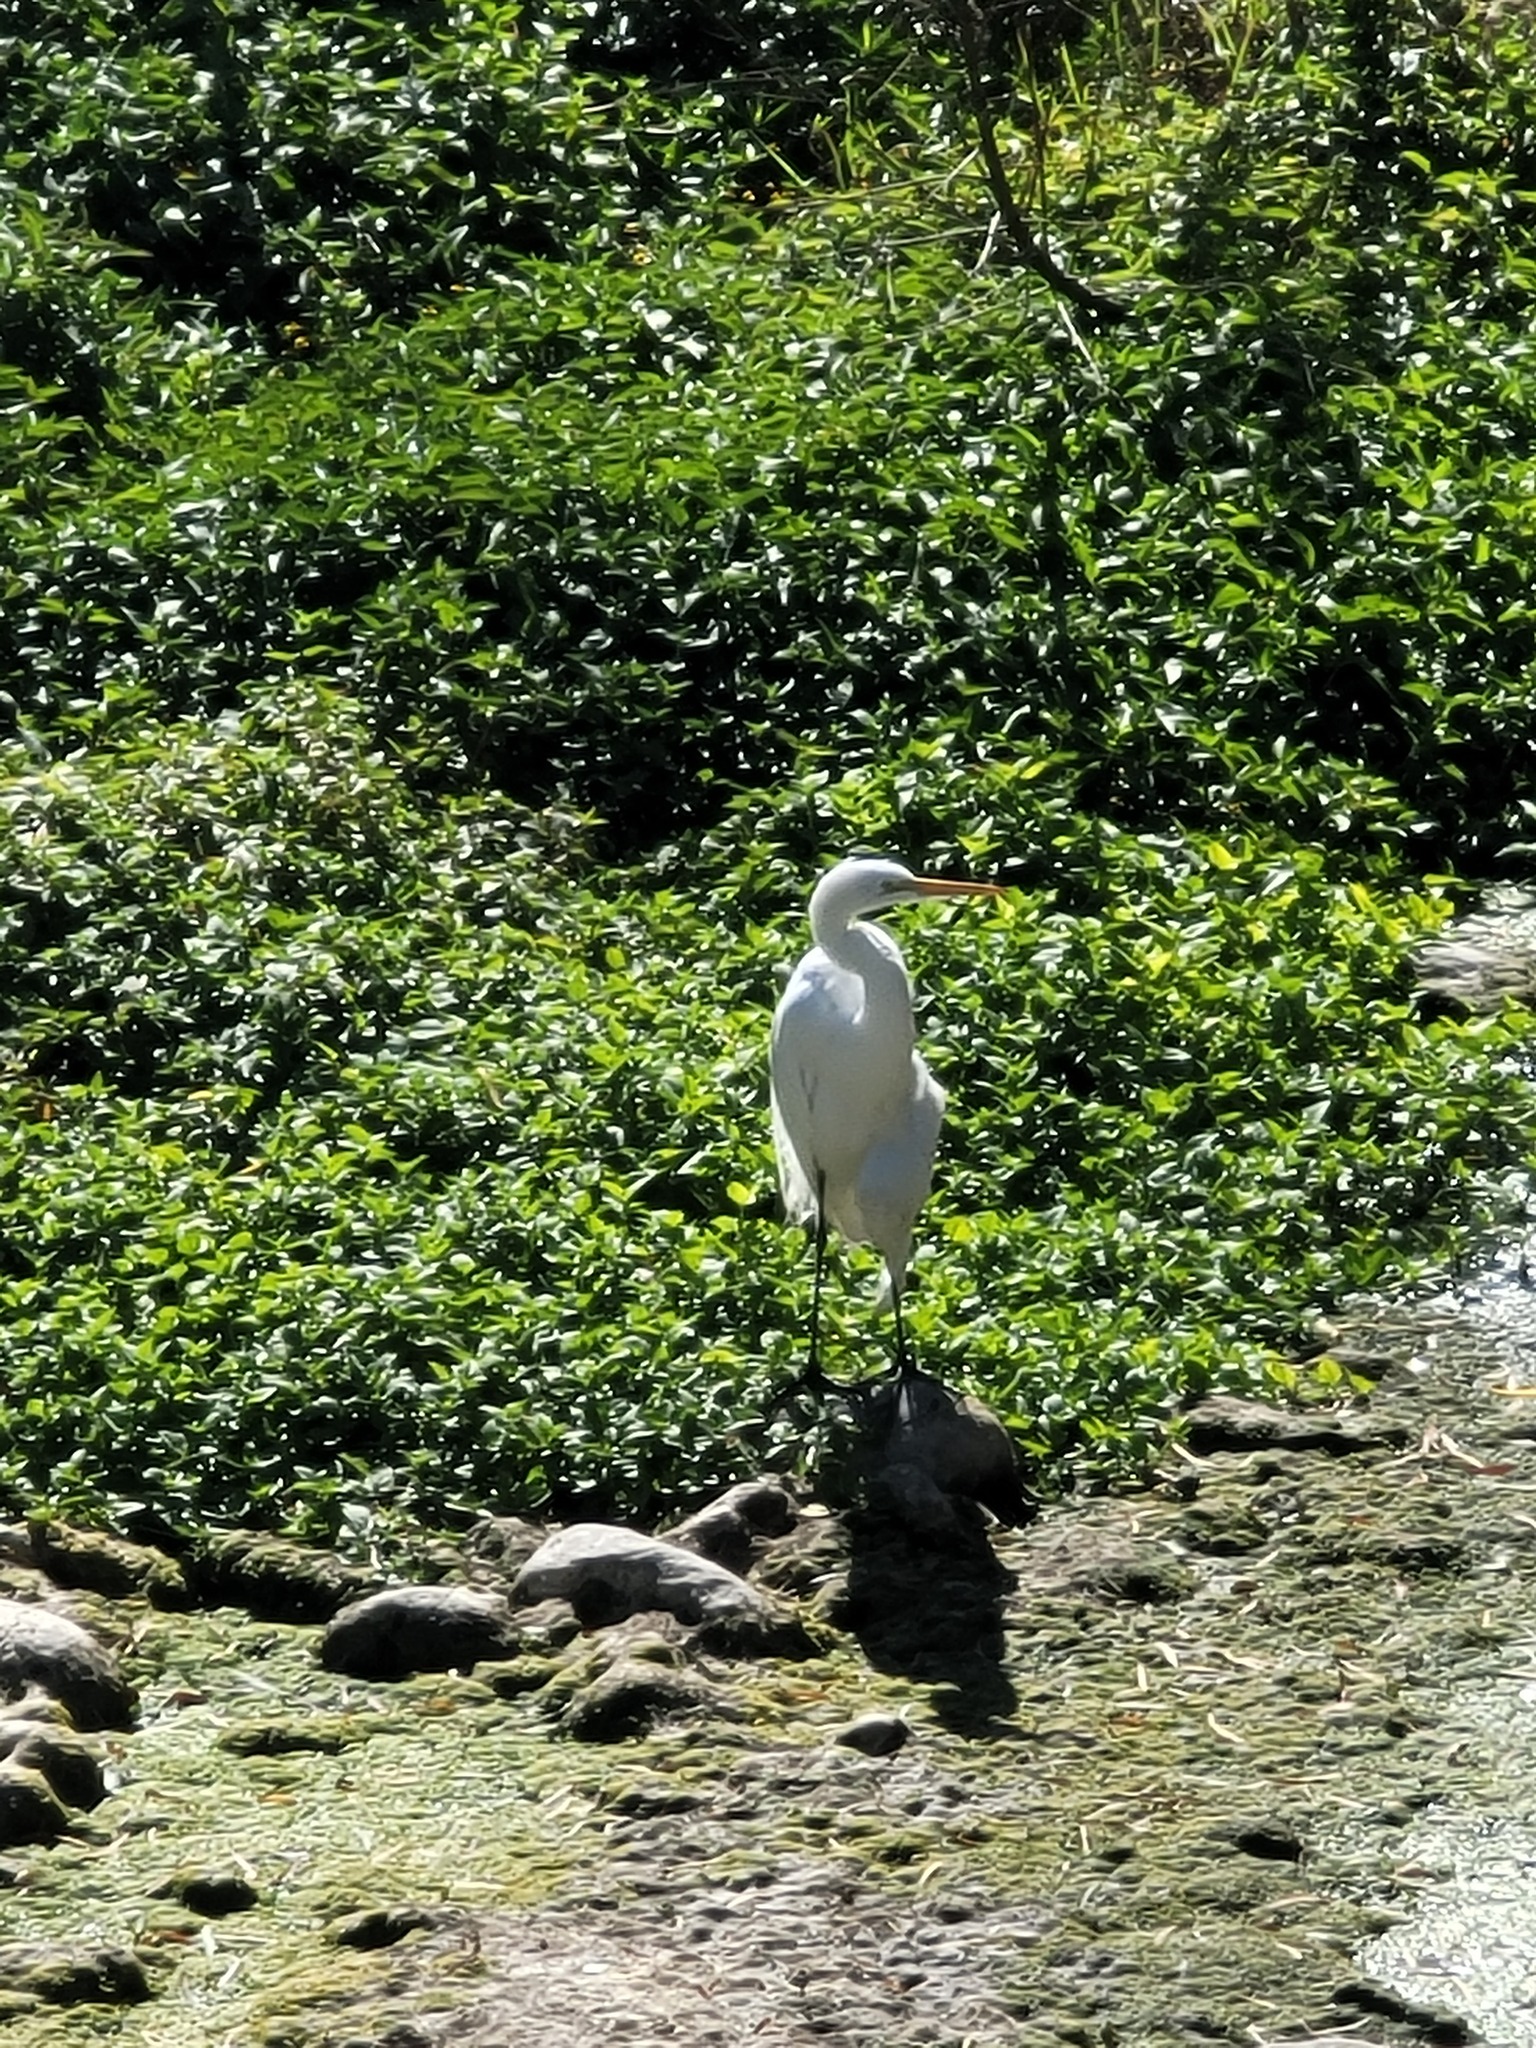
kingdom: Animalia
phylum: Chordata
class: Aves
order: Pelecaniformes
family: Ardeidae
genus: Ardea
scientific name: Ardea alba
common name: Great egret
